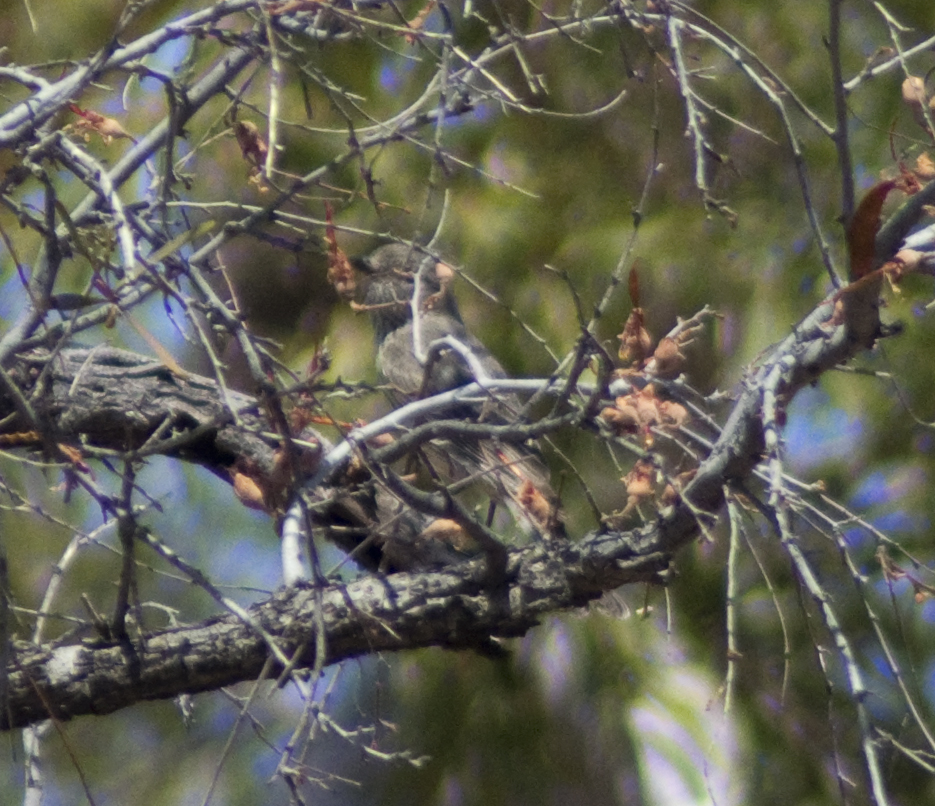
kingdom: Animalia
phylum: Chordata
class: Aves
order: Passeriformes
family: Pachycephalidae
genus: Pachycephala
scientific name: Pachycephala rufiventris
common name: Rufous whistler
